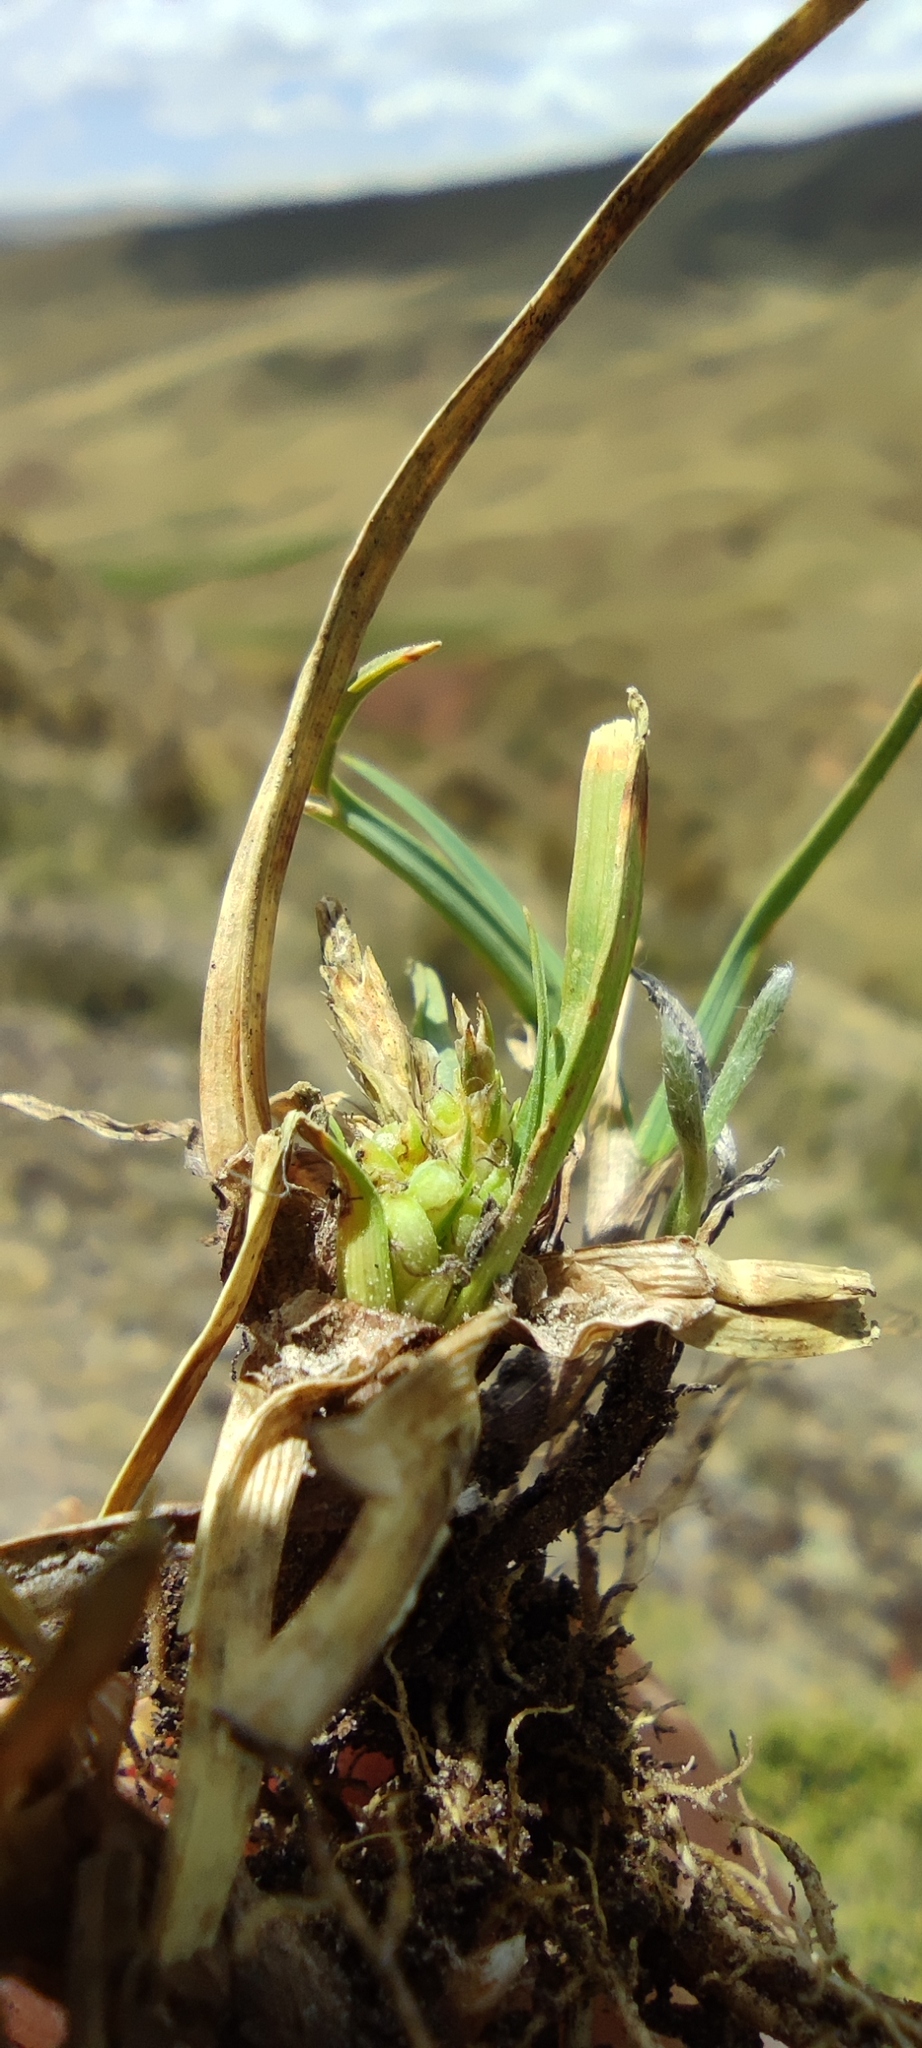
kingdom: Plantae
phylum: Tracheophyta
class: Liliopsida
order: Poales
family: Cyperaceae
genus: Carex
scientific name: Carex brachycalama
